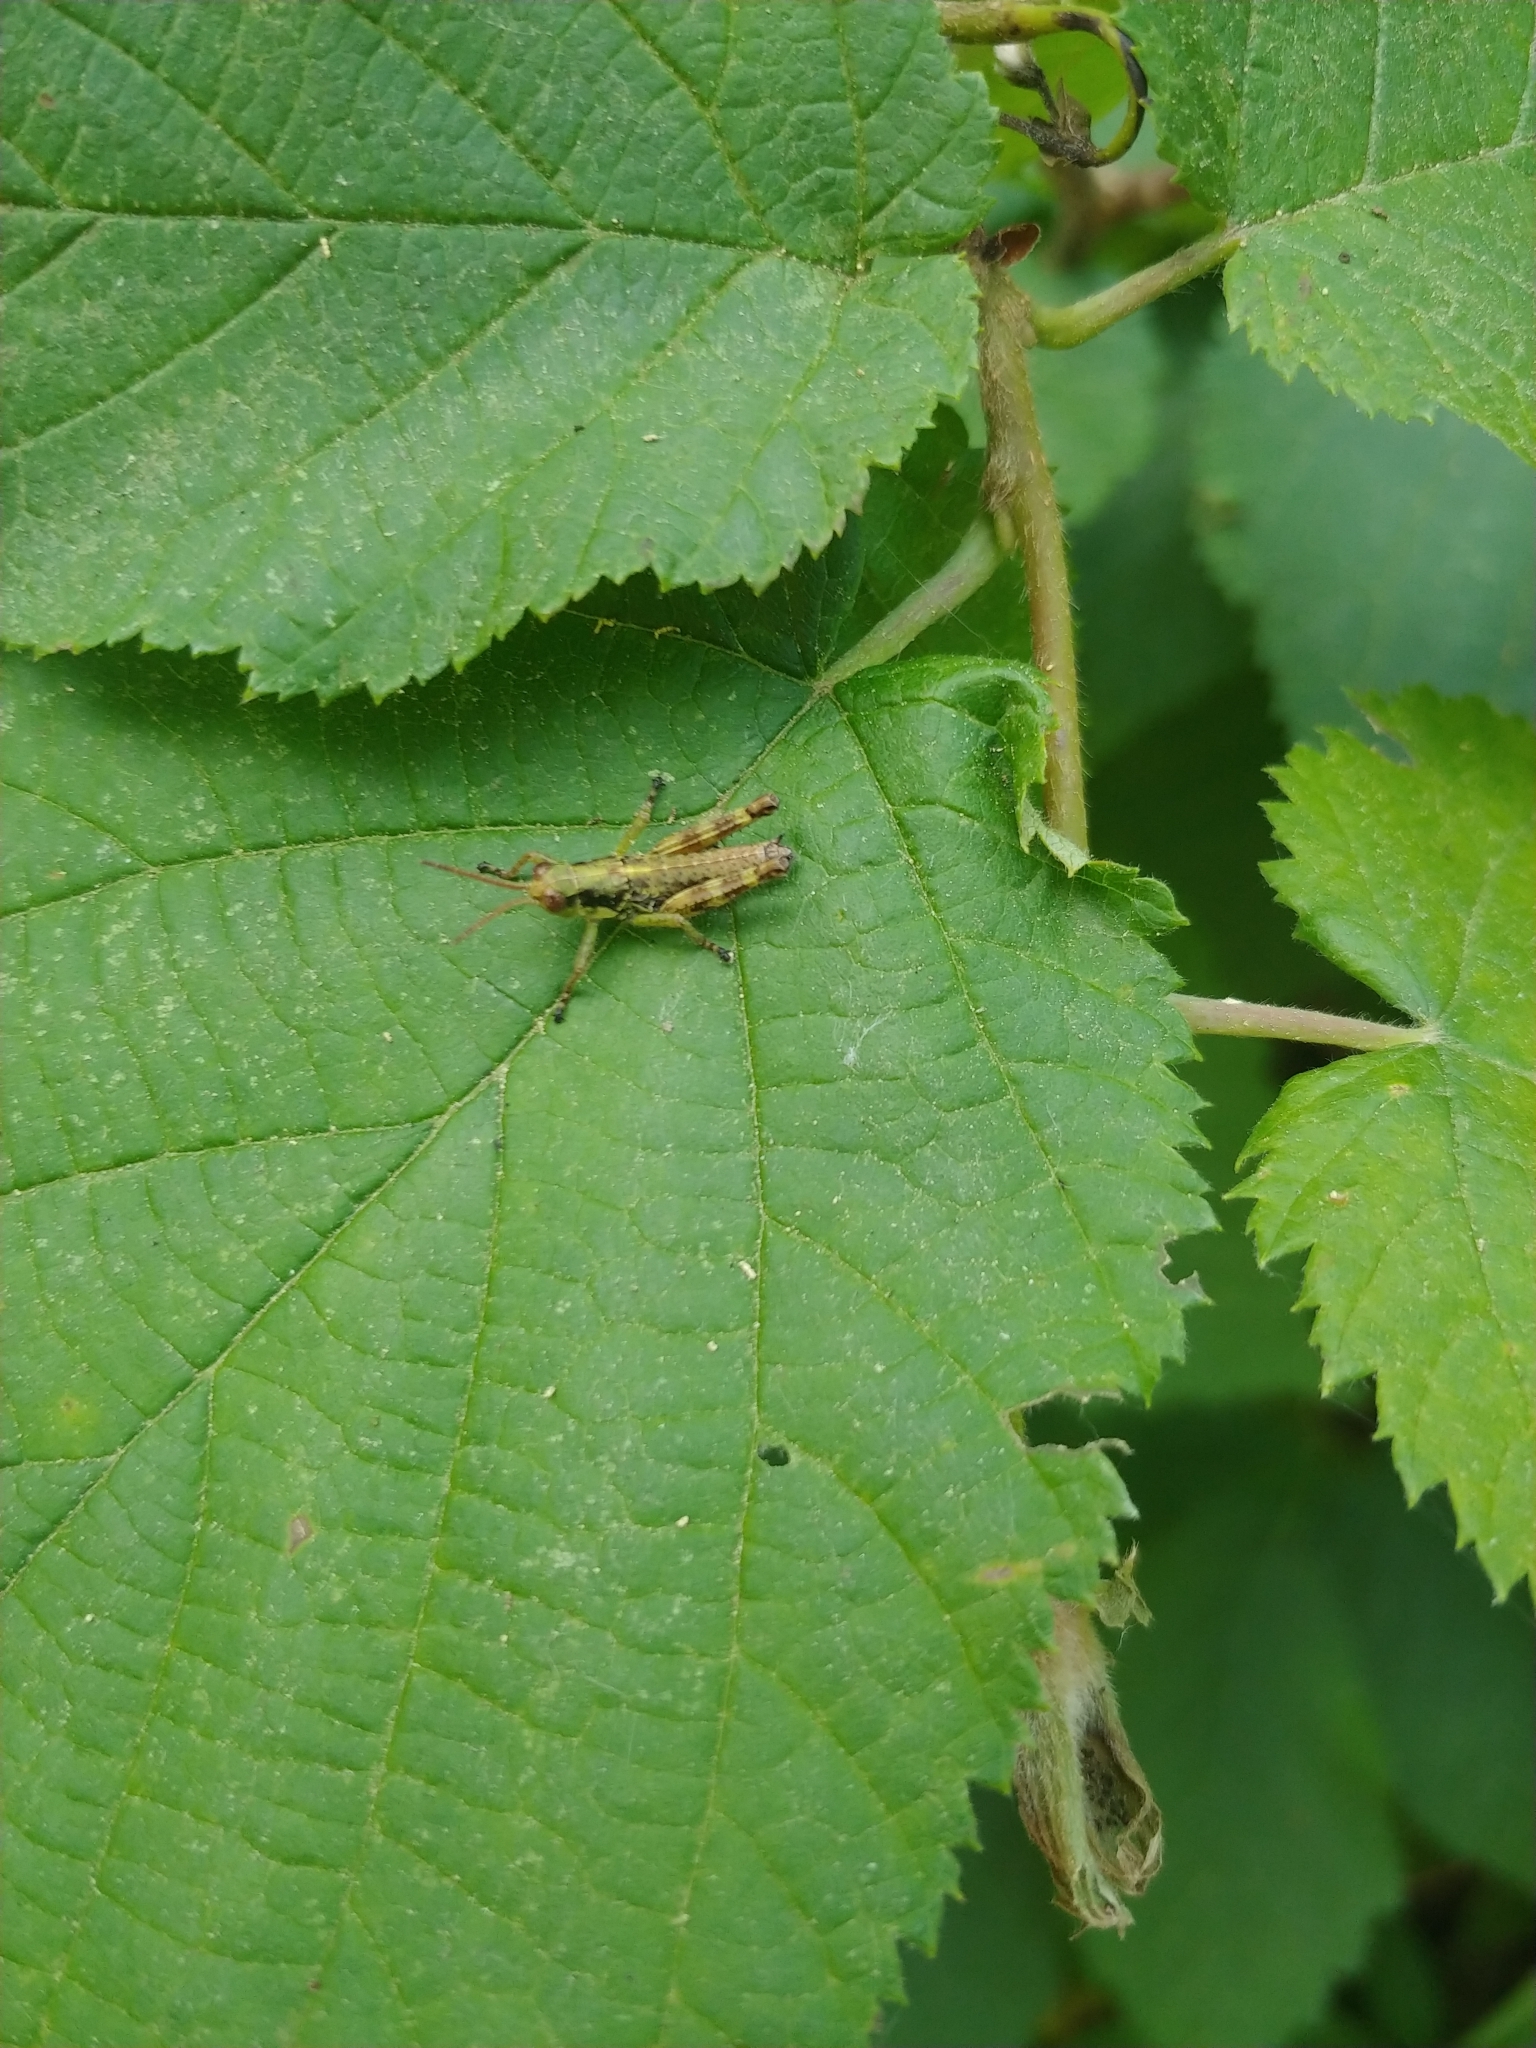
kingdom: Animalia
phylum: Arthropoda
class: Insecta
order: Orthoptera
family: Acrididae
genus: Booneacris
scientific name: Booneacris glacialis
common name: Wingless mountain grasshopper
